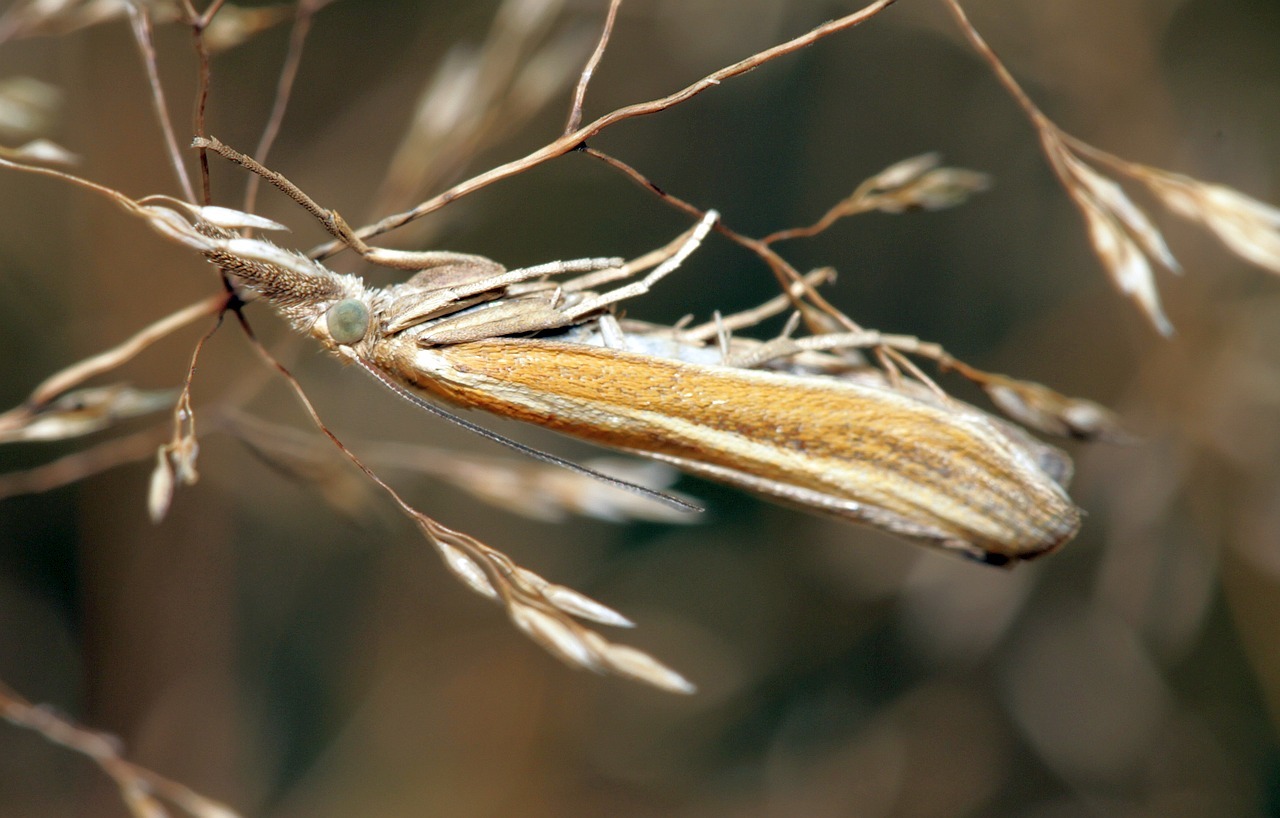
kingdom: Animalia
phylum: Arthropoda
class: Insecta
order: Lepidoptera
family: Crambidae
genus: Agriphila
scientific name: Agriphila tristellus
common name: Common grass-veneer
